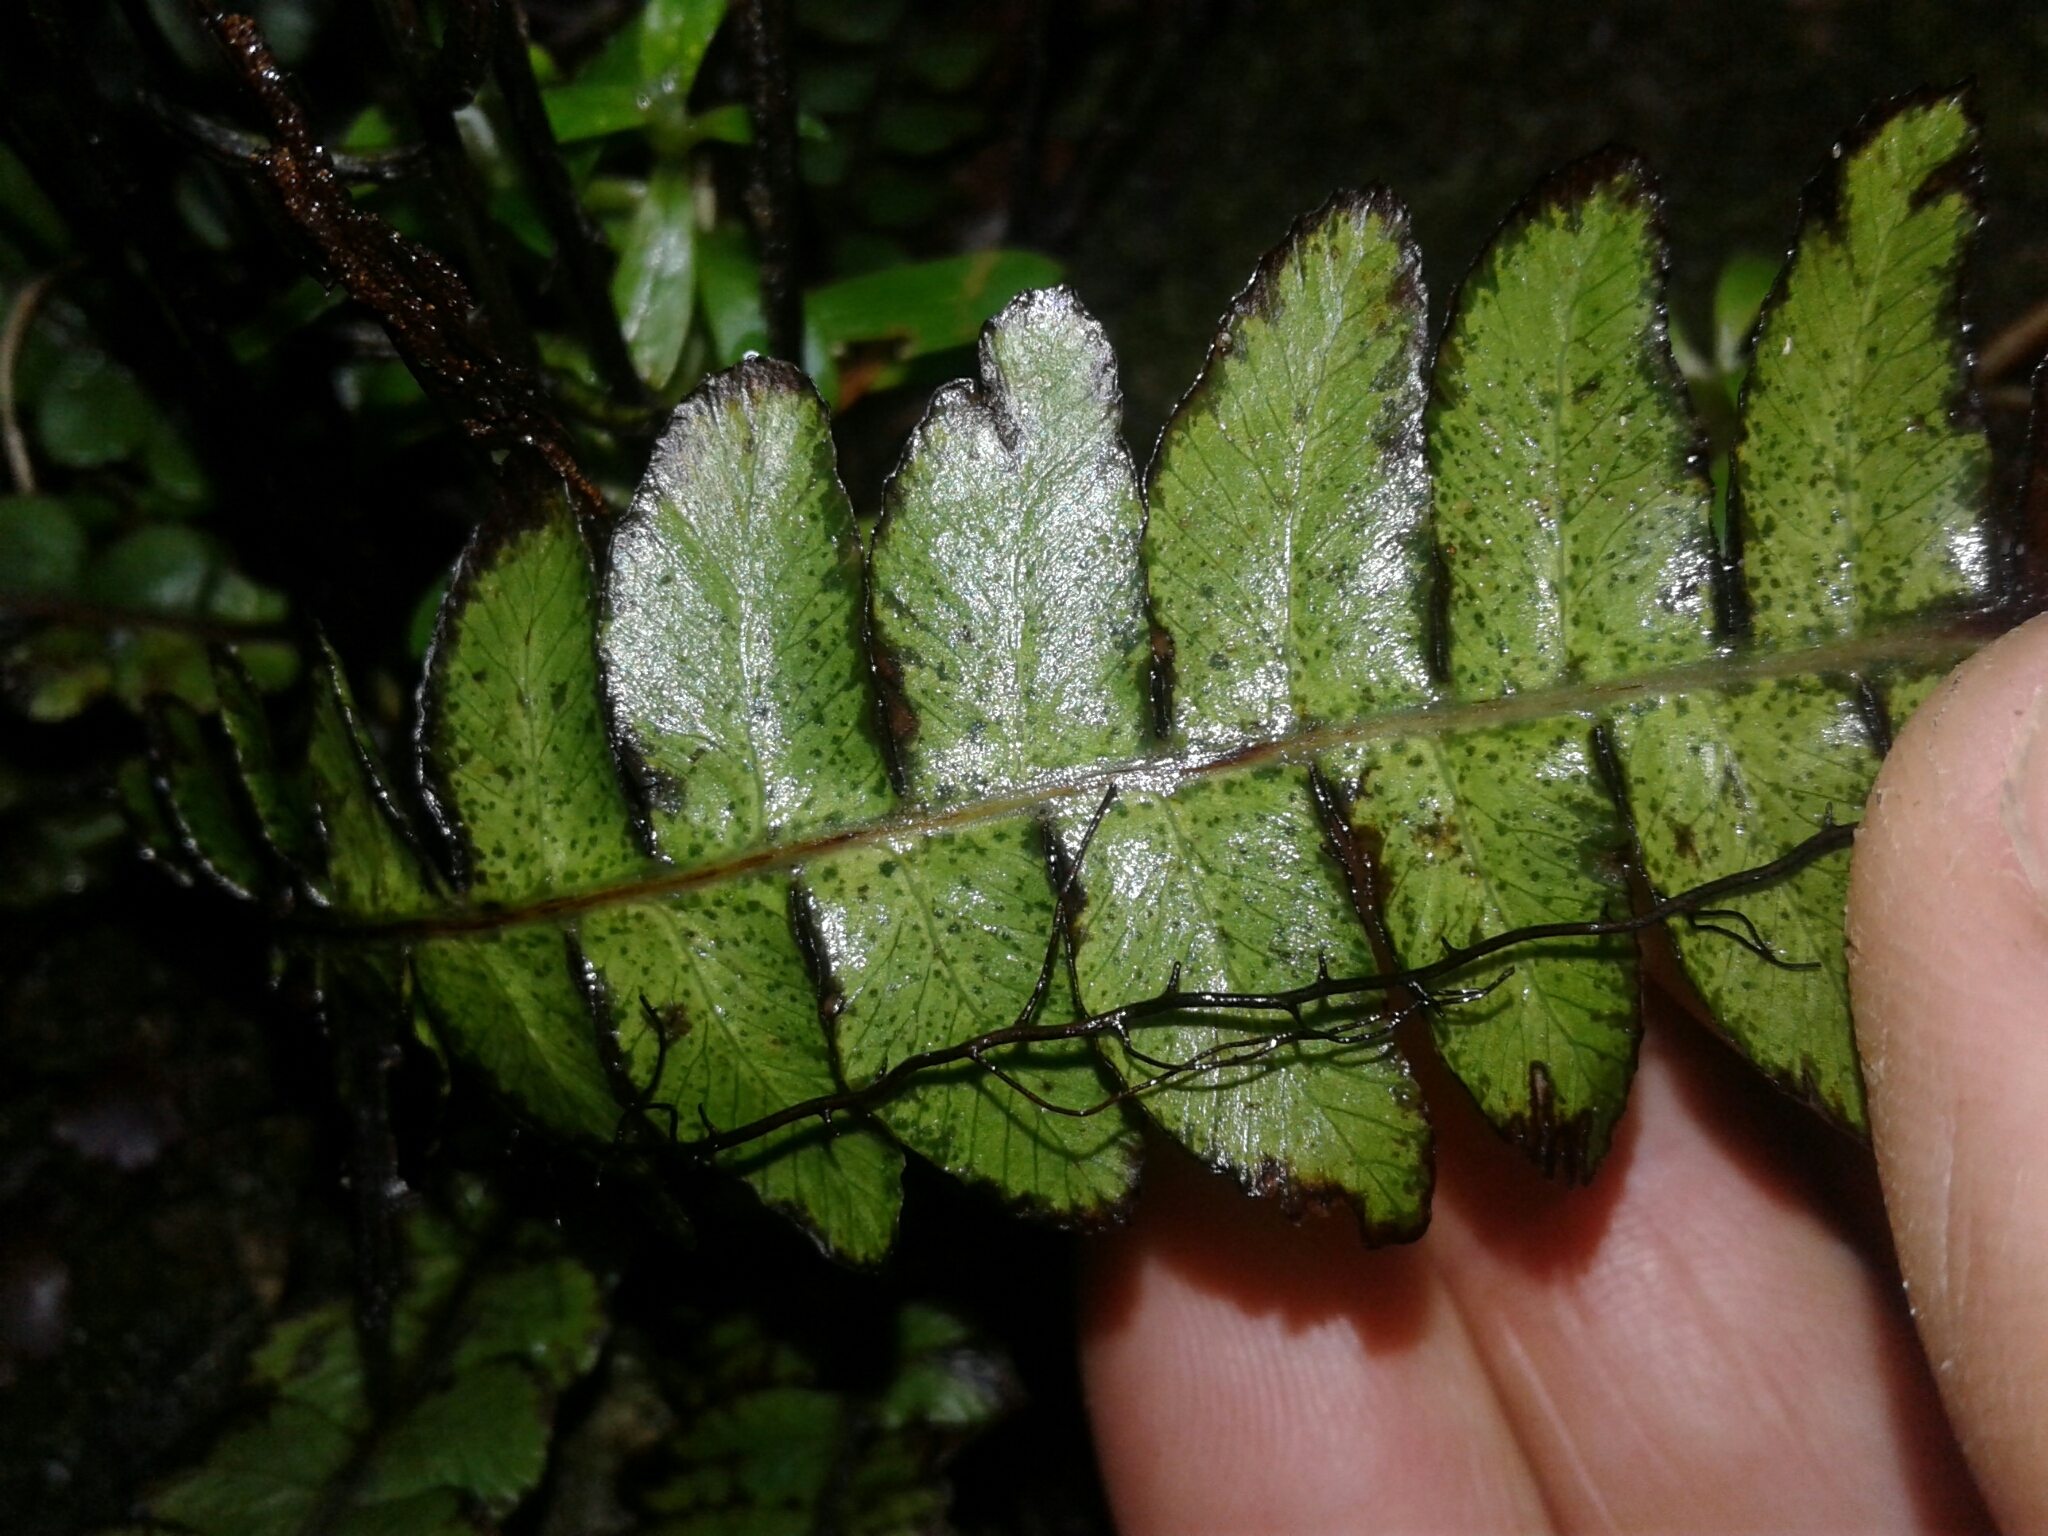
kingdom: Plantae
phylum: Tracheophyta
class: Polypodiopsida
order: Polypodiales
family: Blechnaceae
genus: Austroblechnum
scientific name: Austroblechnum lanceolatum
